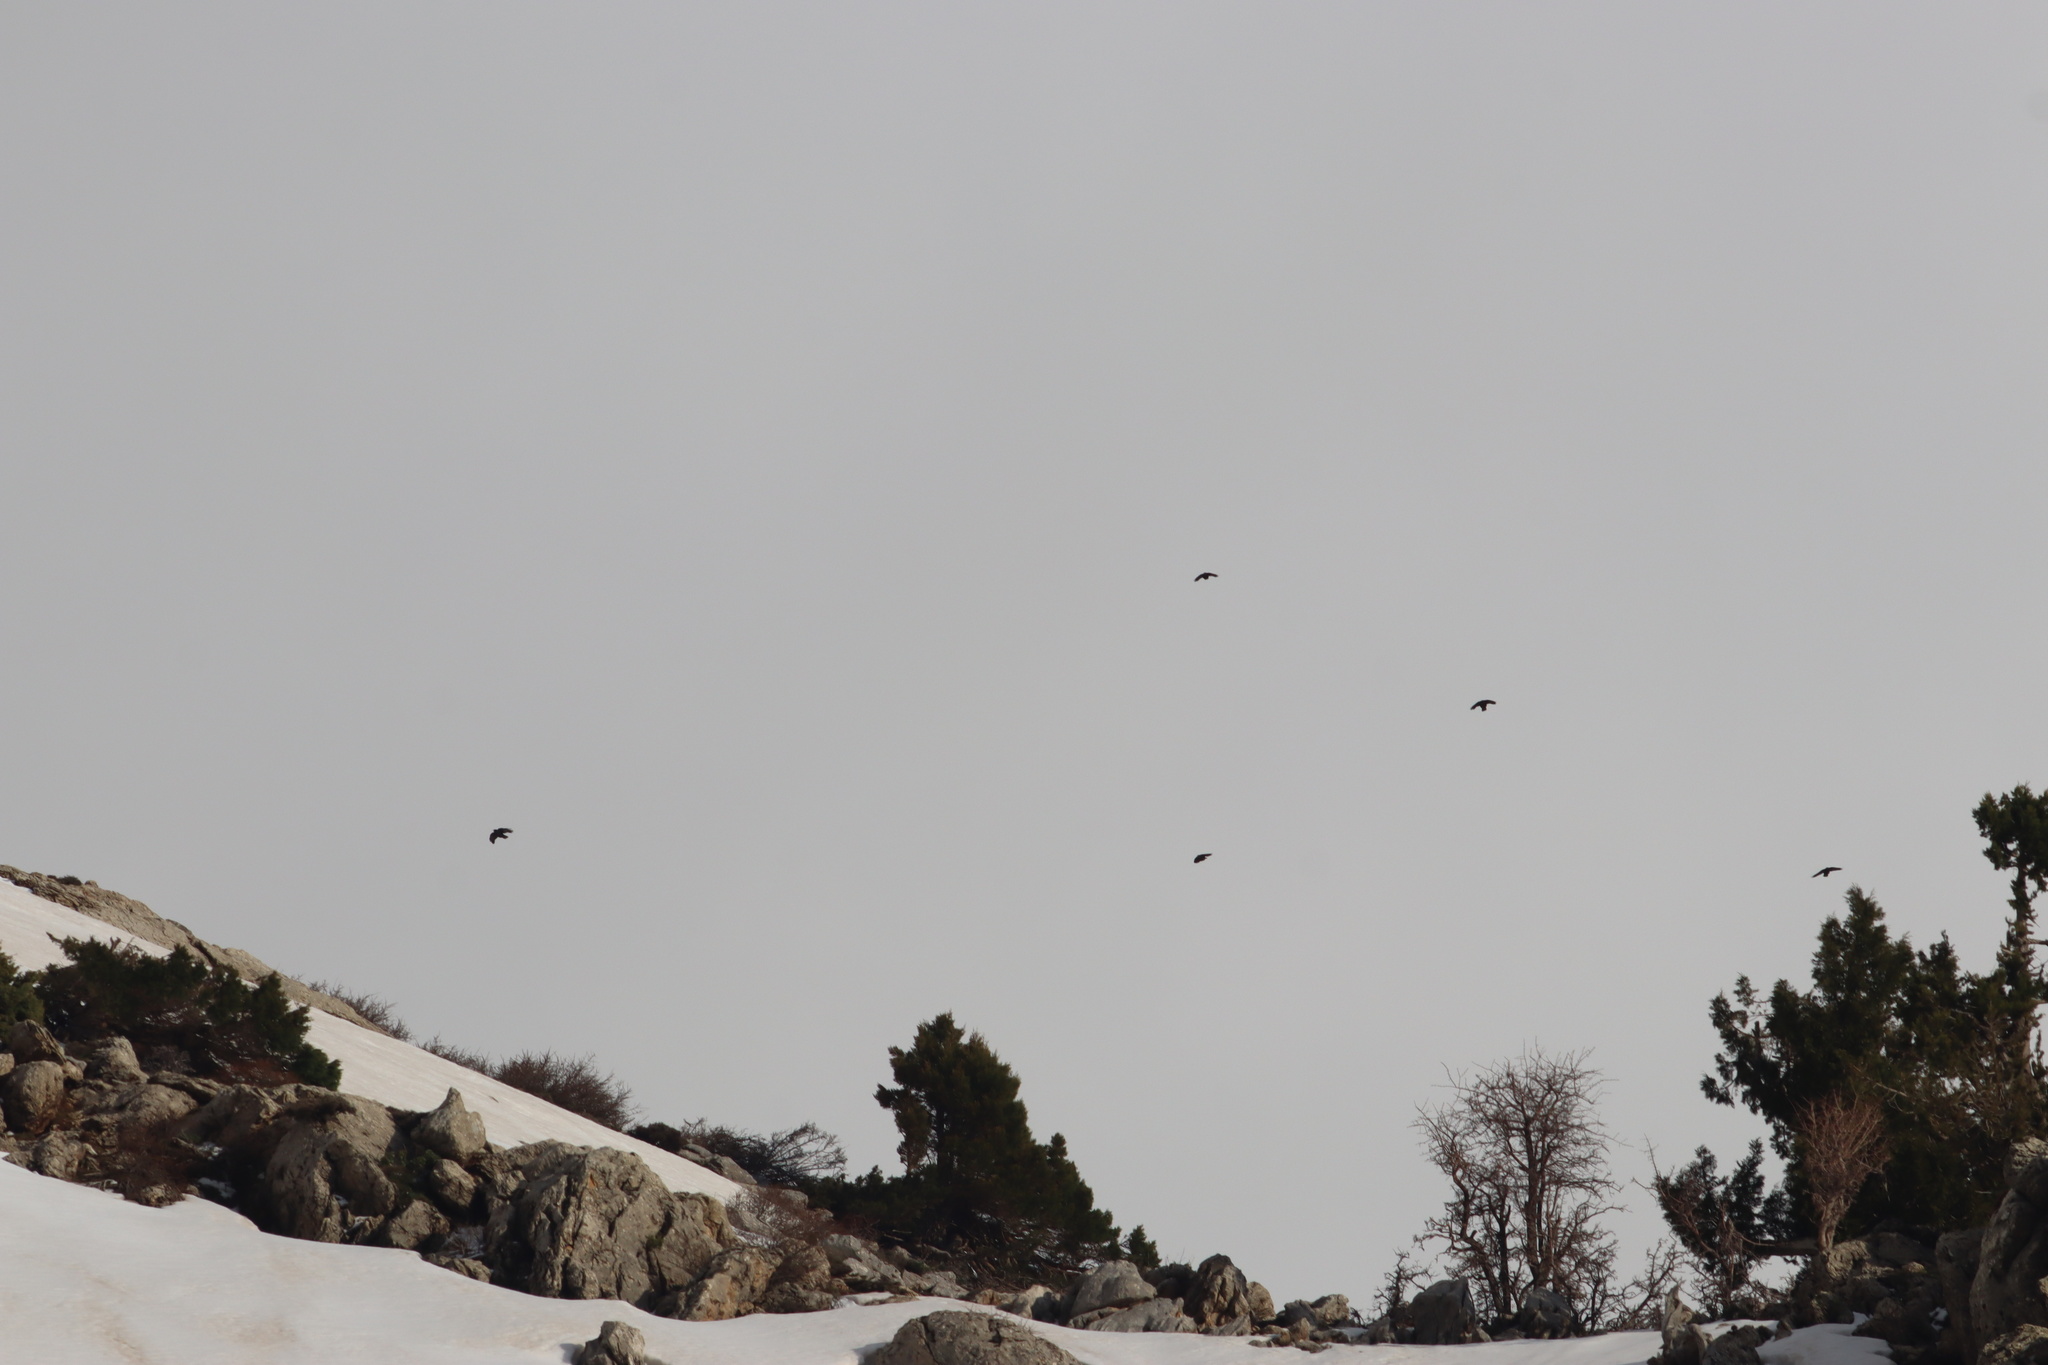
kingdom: Animalia
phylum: Chordata
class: Aves
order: Passeriformes
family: Corvidae
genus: Pyrrhocorax
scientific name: Pyrrhocorax graculus
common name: Alpine chough
